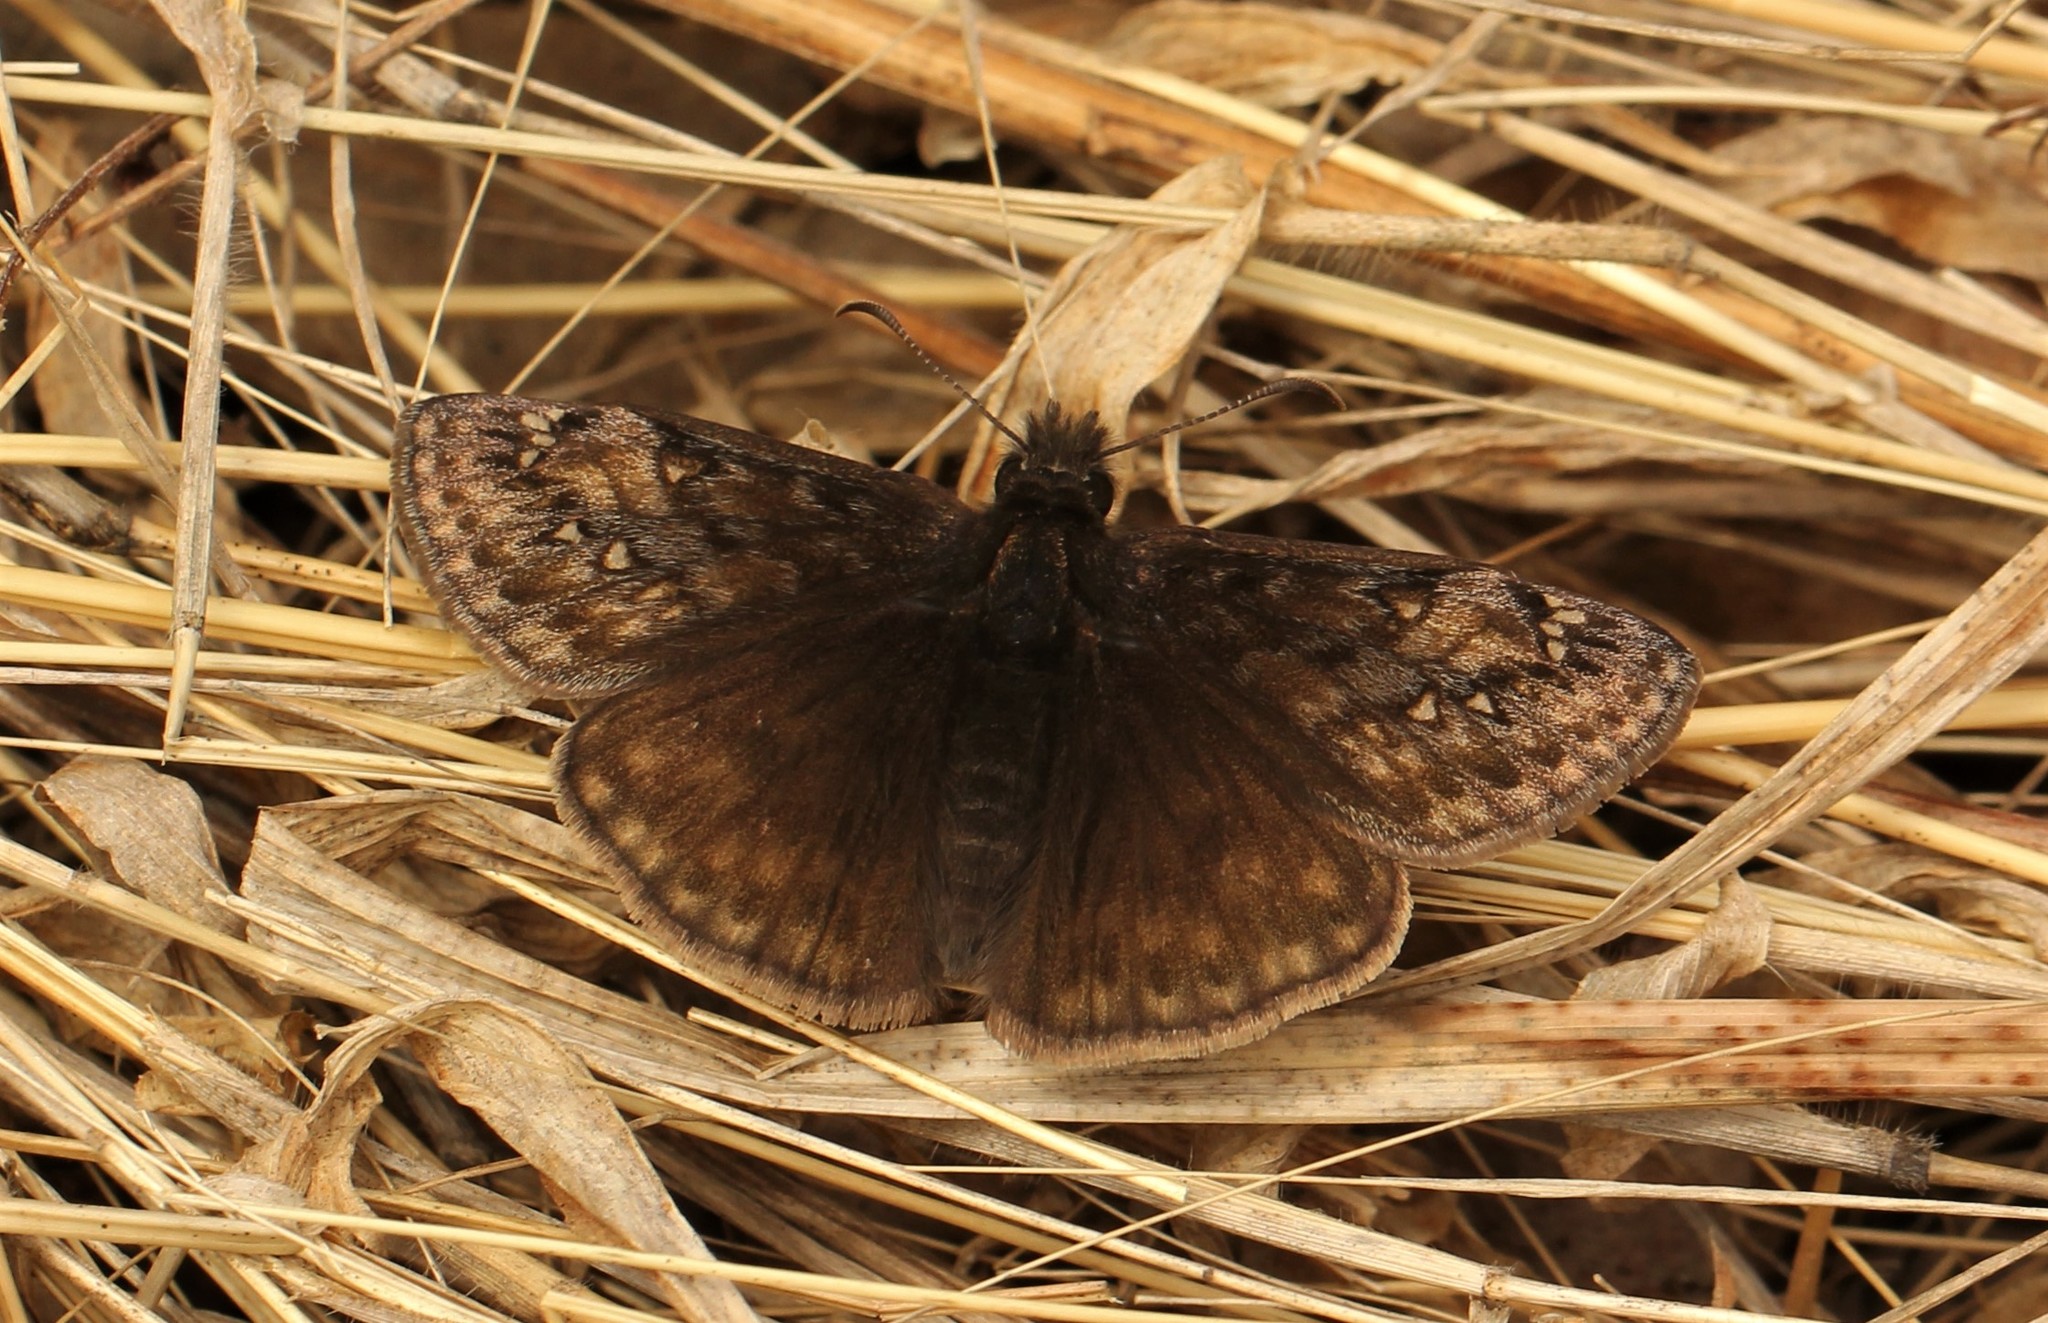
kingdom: Animalia
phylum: Arthropoda
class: Insecta
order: Lepidoptera
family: Hesperiidae
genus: Erynnis
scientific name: Erynnis juvenalis
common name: Juvenal's duskywing
